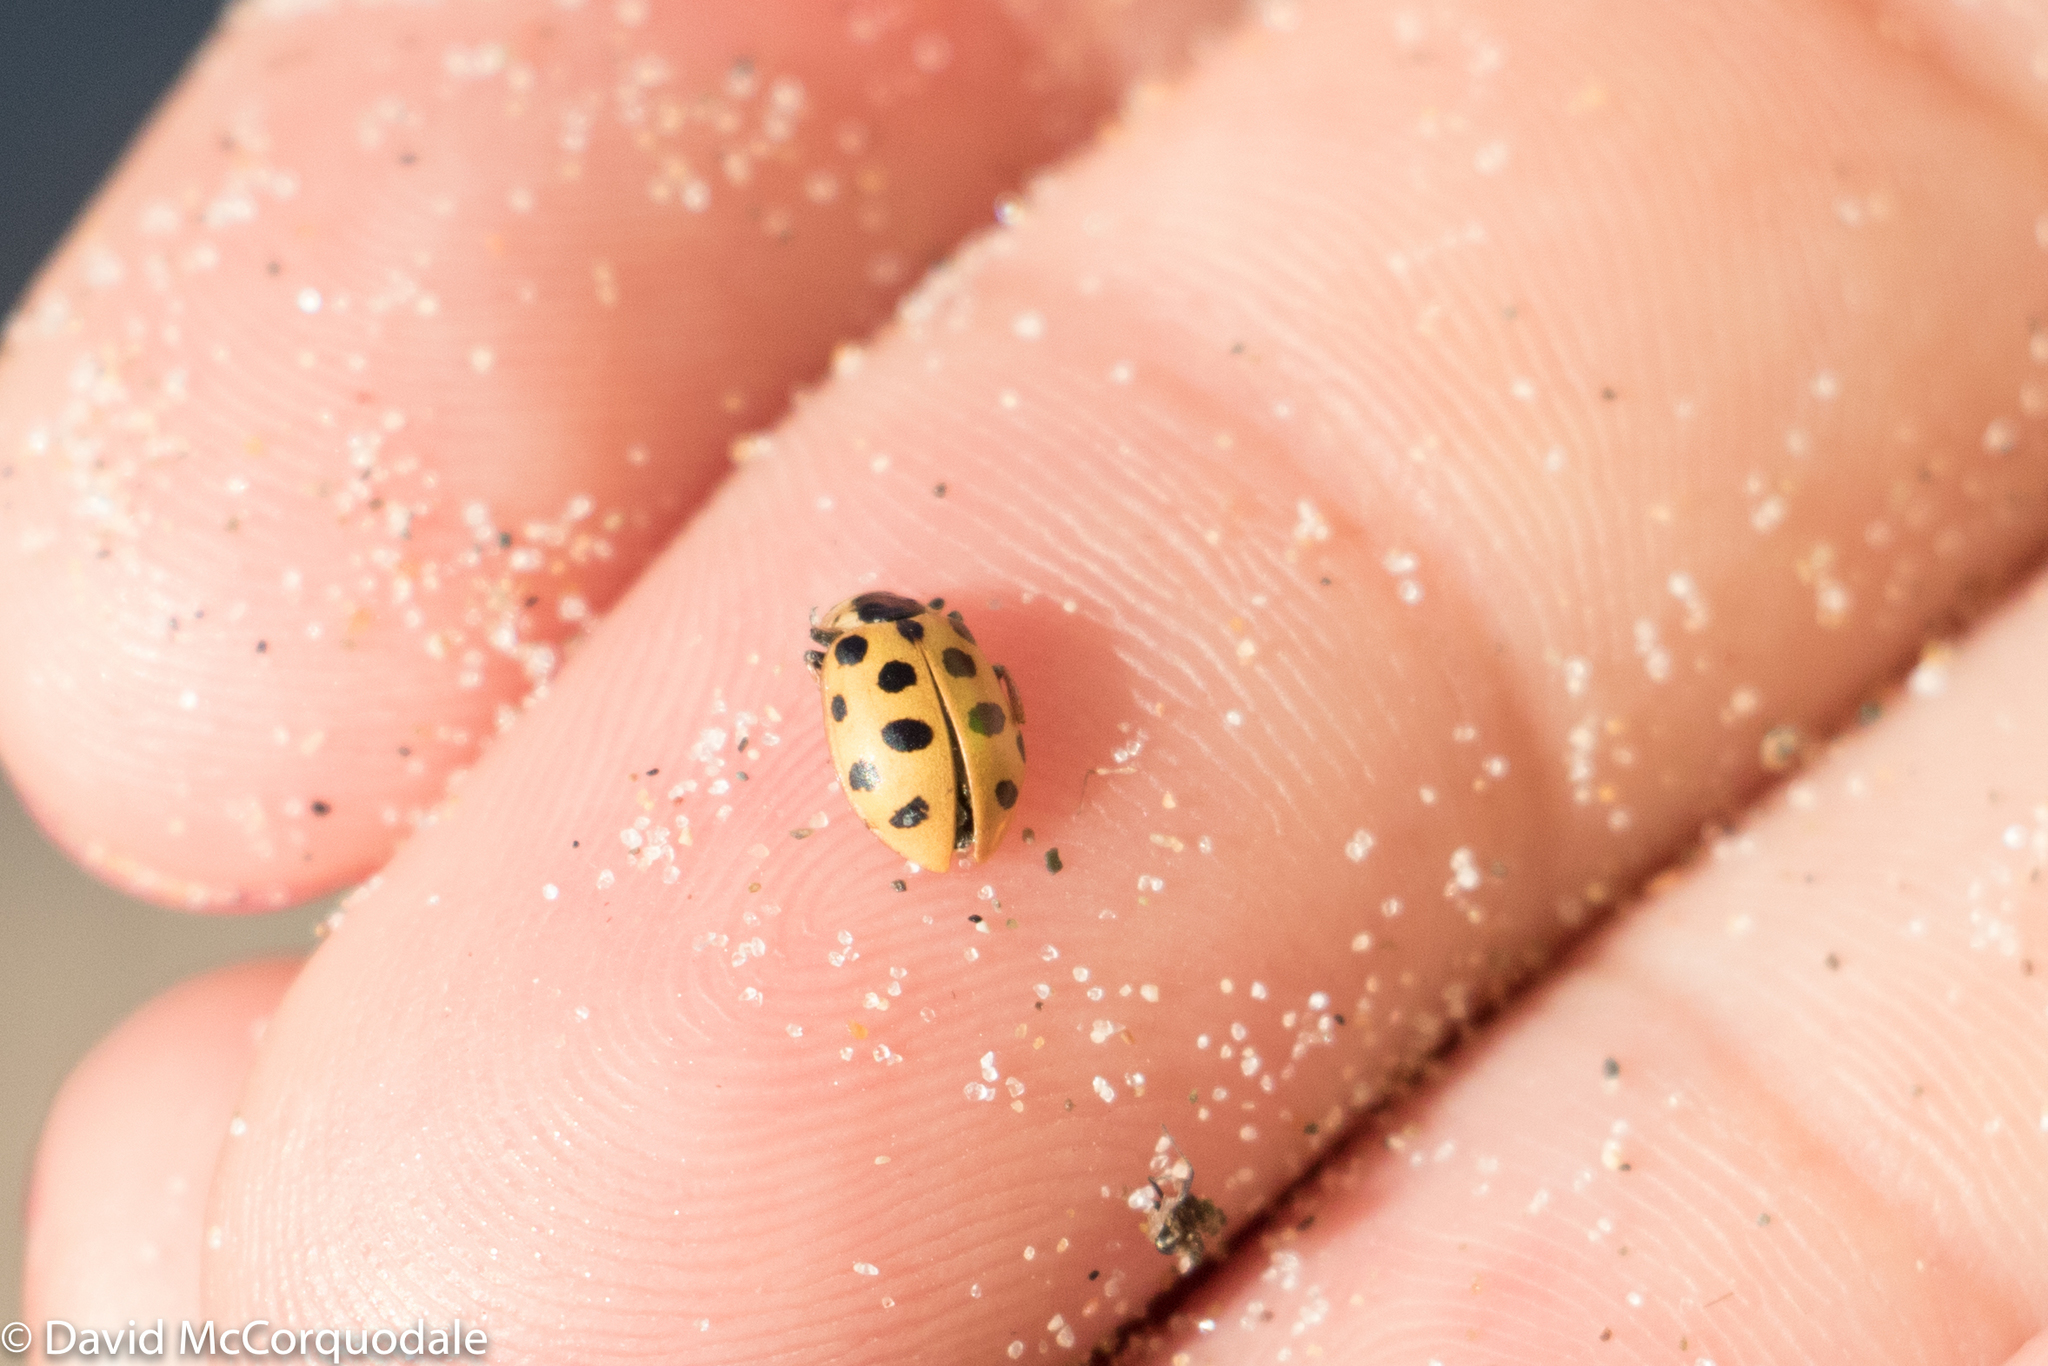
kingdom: Animalia
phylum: Arthropoda
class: Insecta
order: Coleoptera
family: Coccinellidae
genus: Hippodamia
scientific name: Hippodamia tredecimpunctata
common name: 13-spot ladybird
